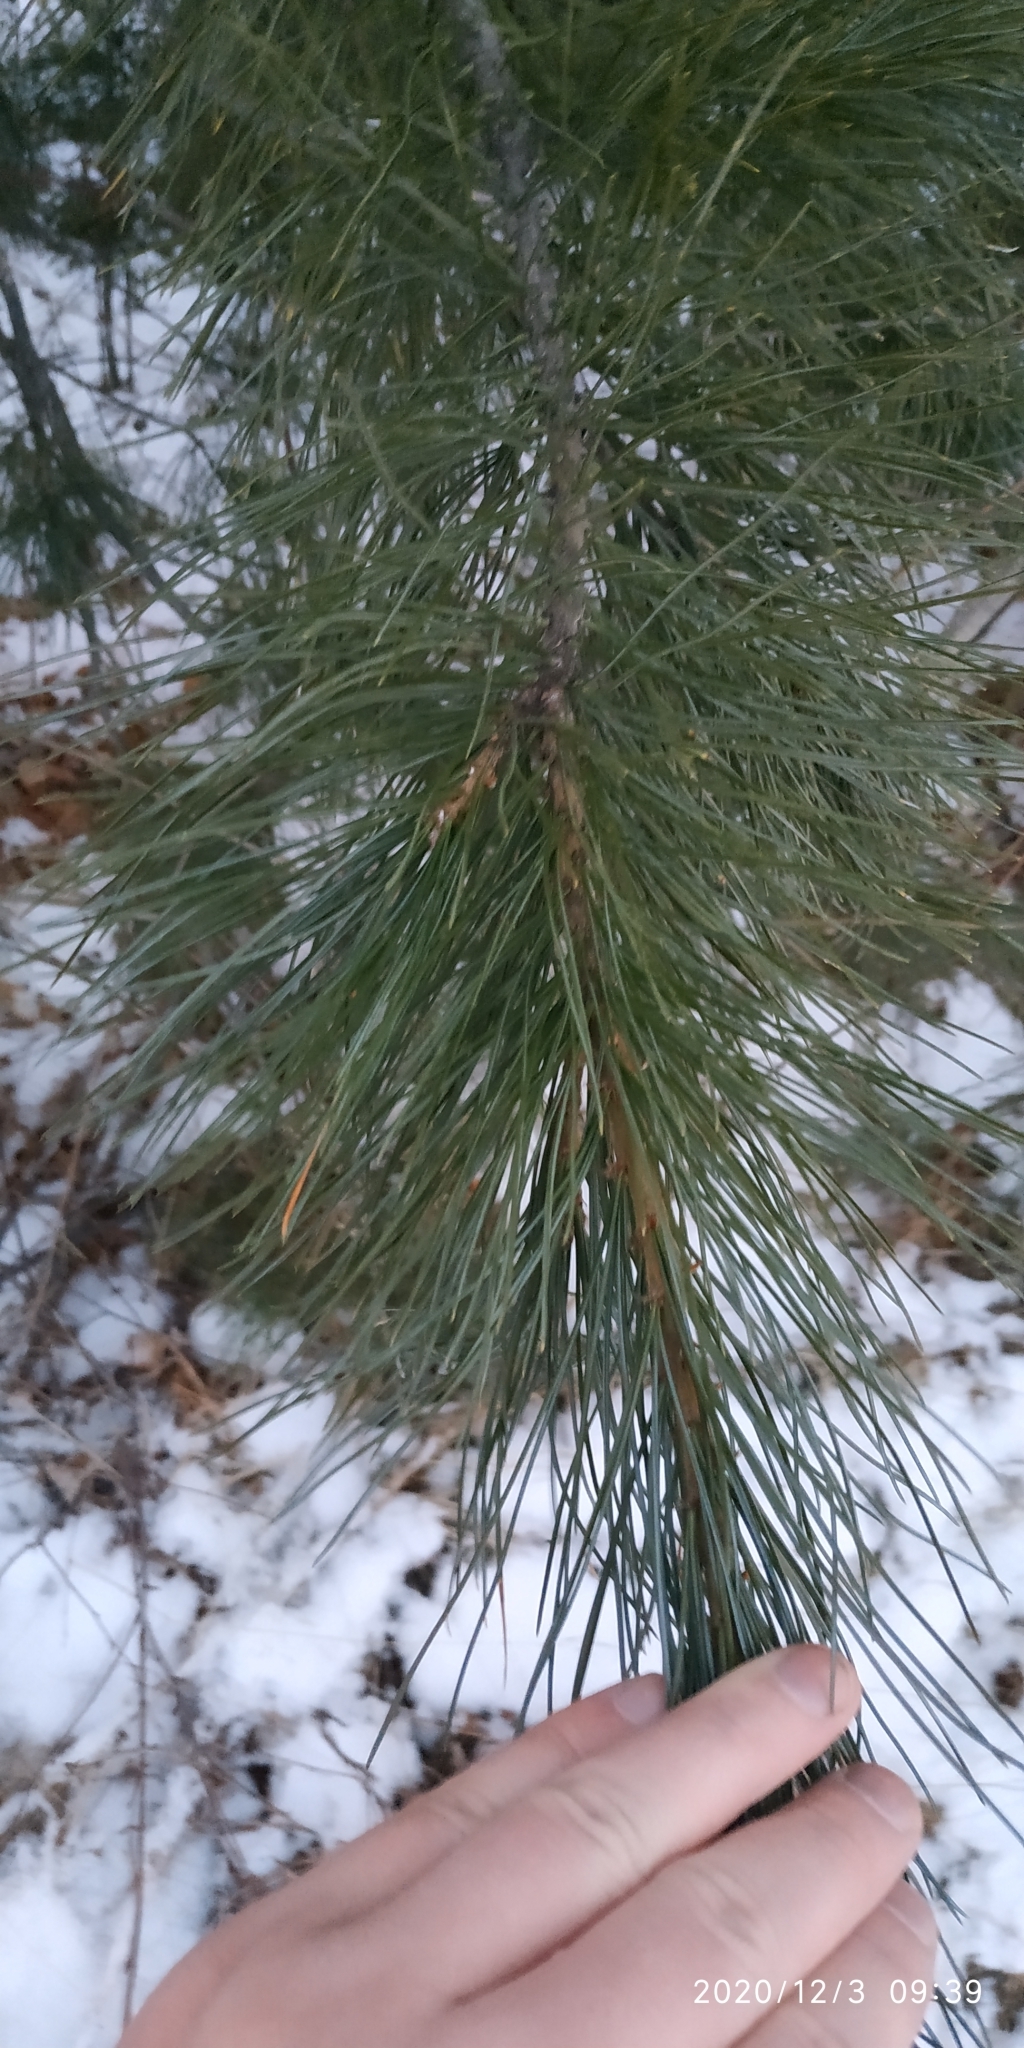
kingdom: Plantae
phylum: Tracheophyta
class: Pinopsida
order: Pinales
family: Pinaceae
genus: Pinus
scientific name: Pinus sibirica
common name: Siberian pine
